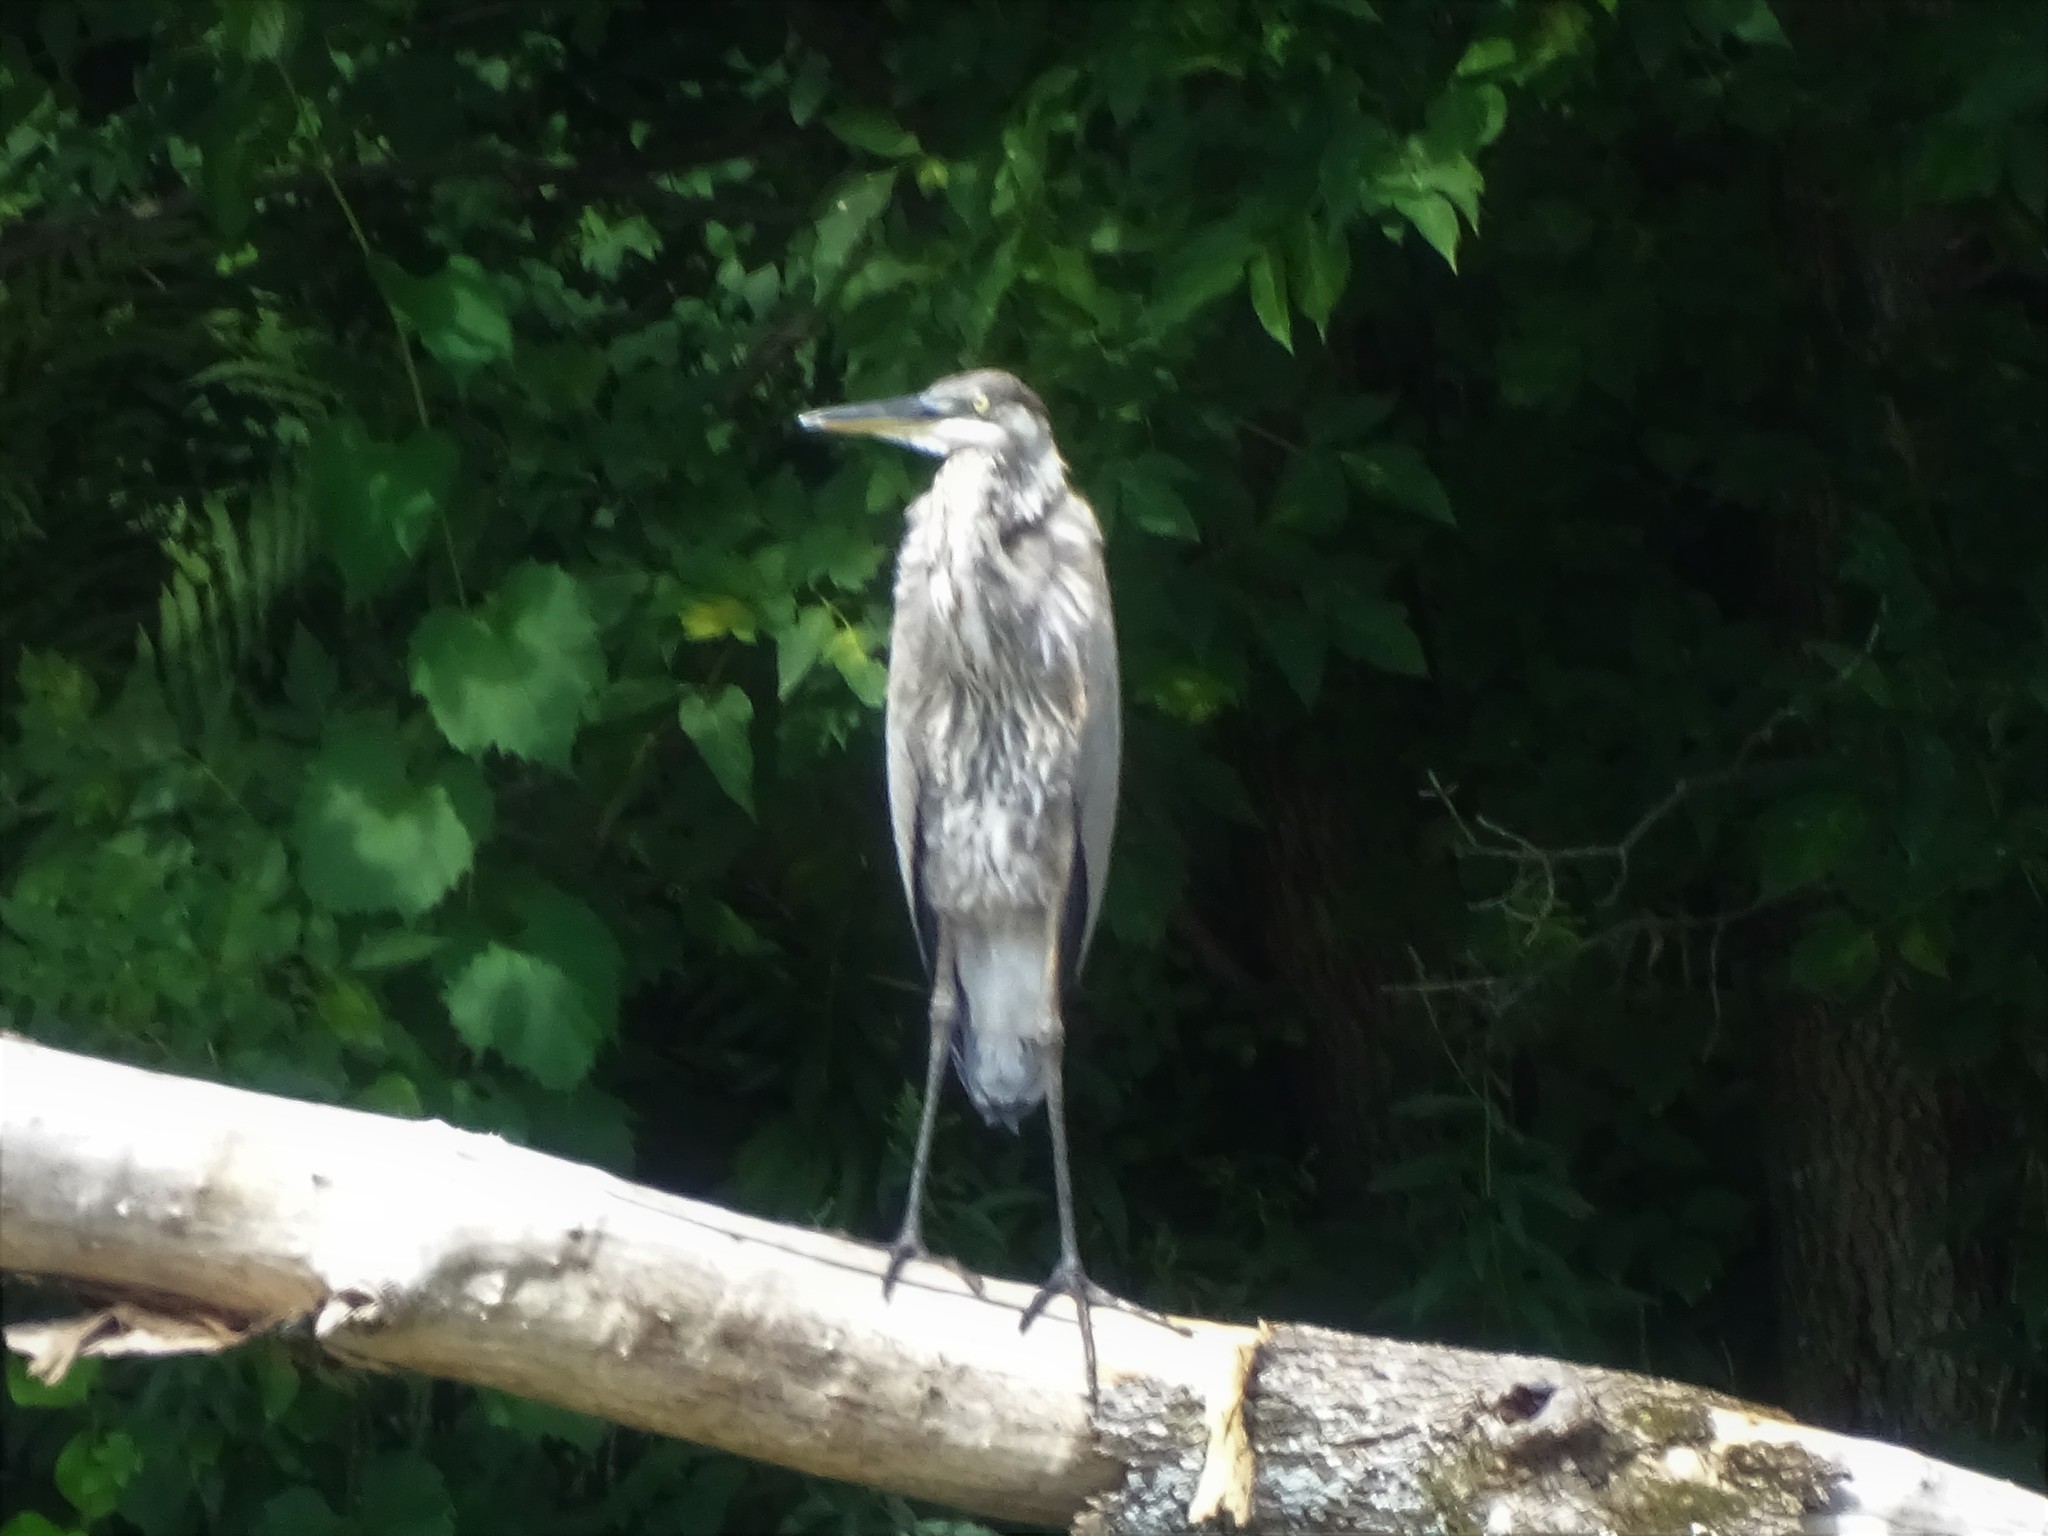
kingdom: Animalia
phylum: Chordata
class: Aves
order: Pelecaniformes
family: Ardeidae
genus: Ardea
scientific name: Ardea herodias
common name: Great blue heron
